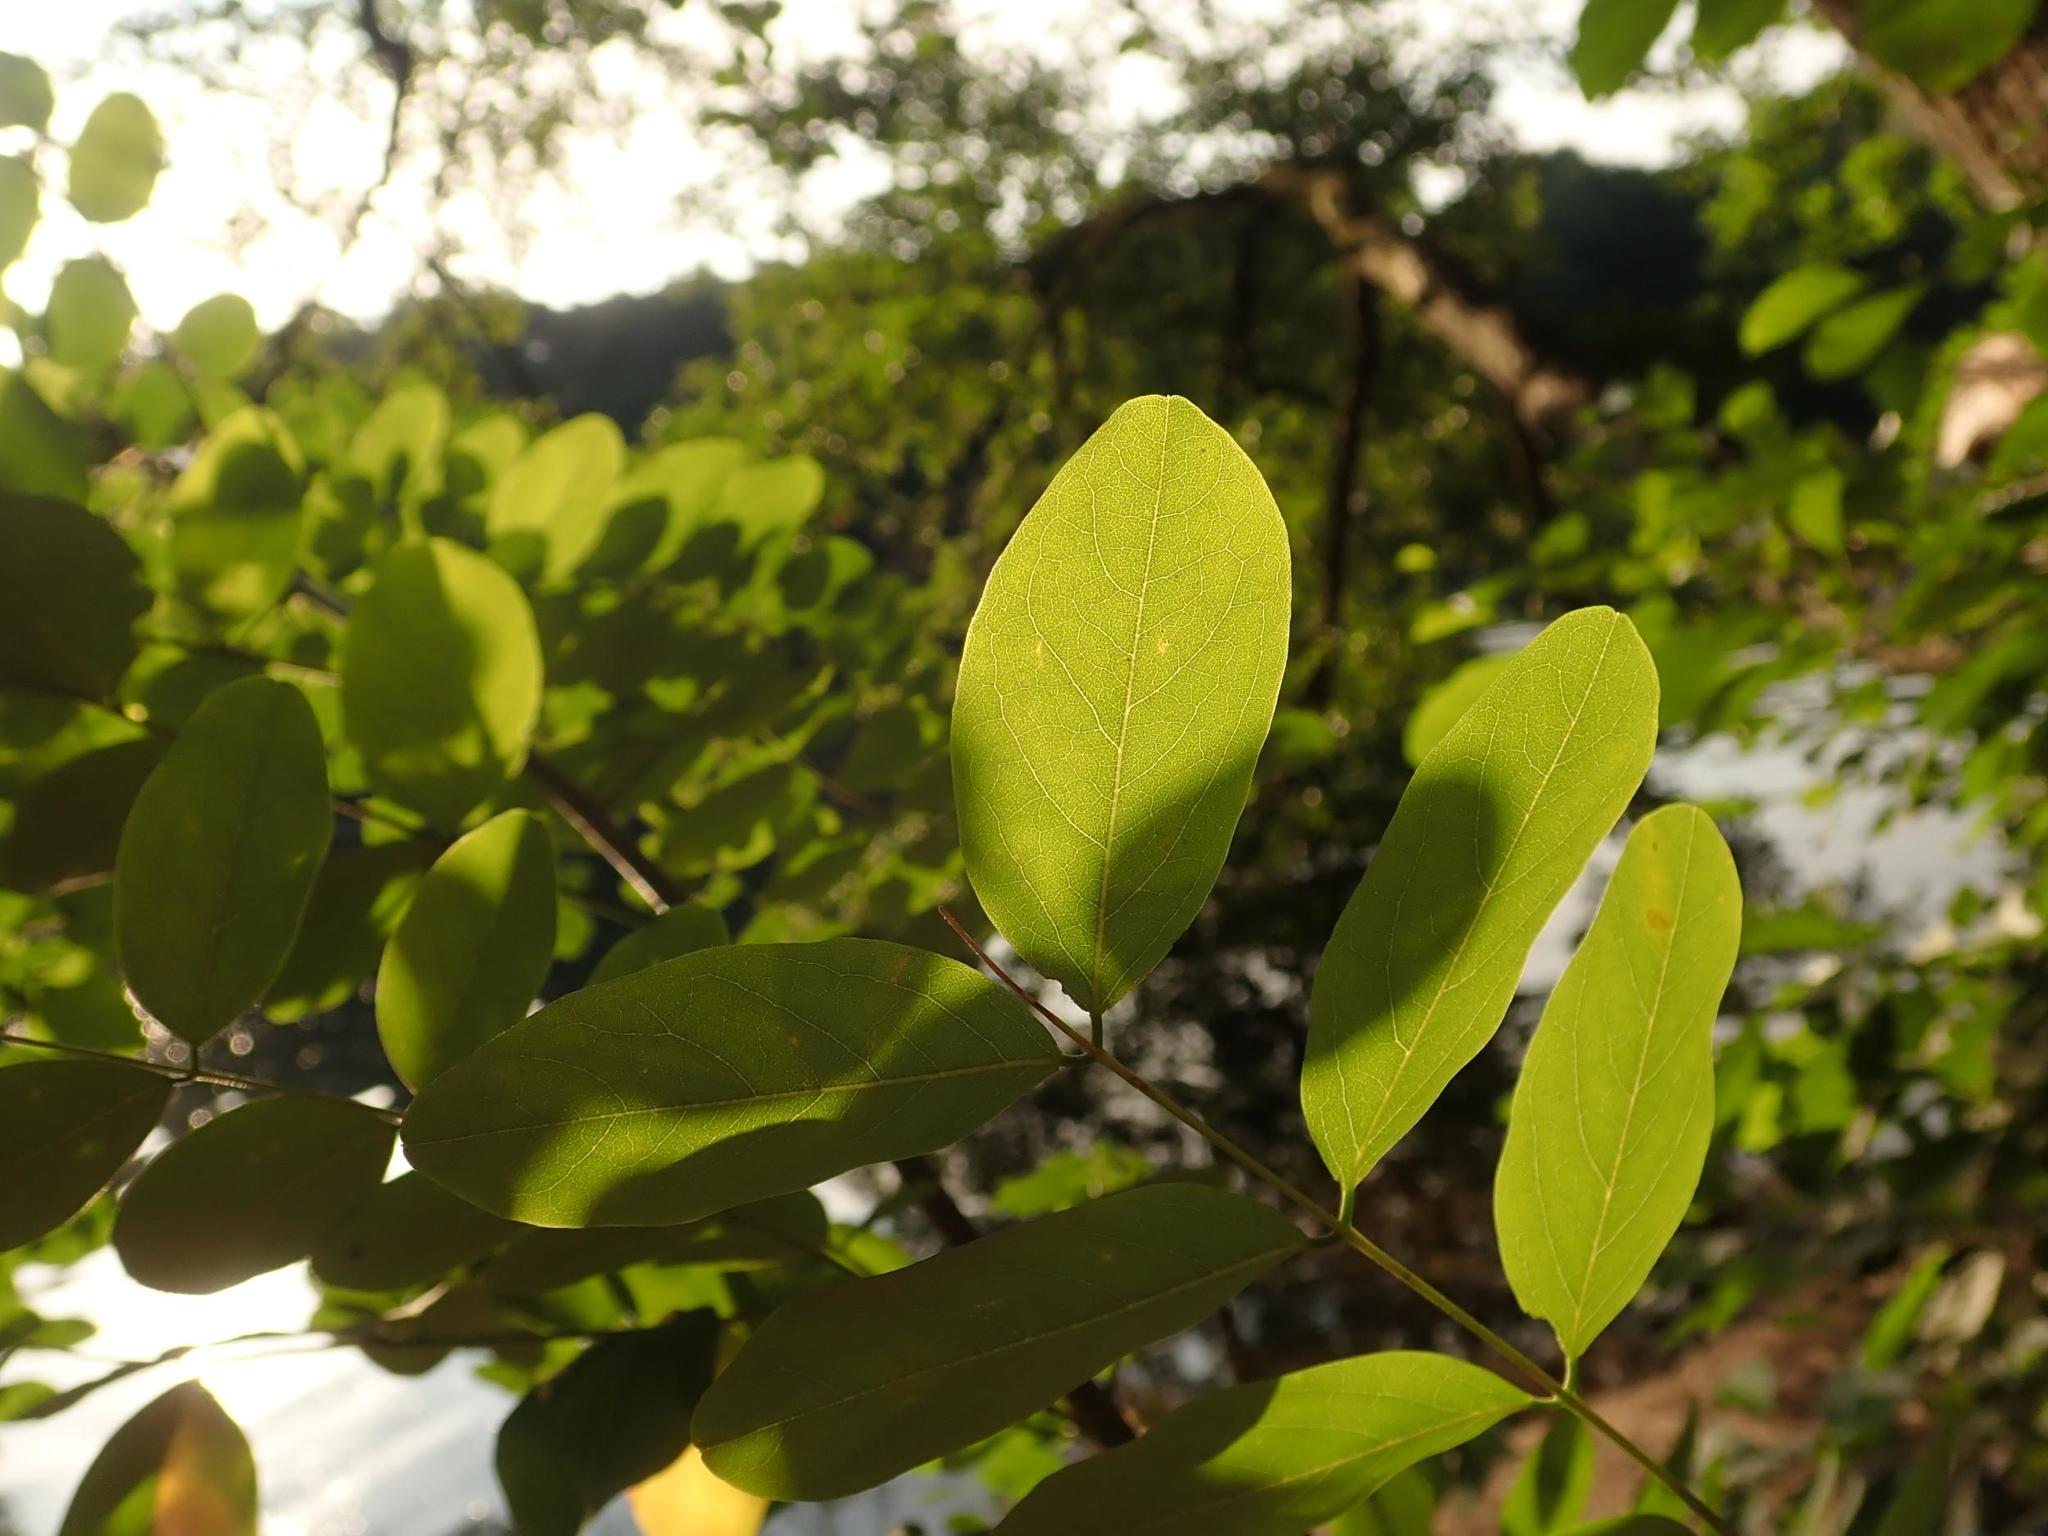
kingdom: Plantae
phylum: Tracheophyta
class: Magnoliopsida
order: Fabales
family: Fabaceae
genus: Robinia
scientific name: Robinia pseudoacacia
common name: Black locust
